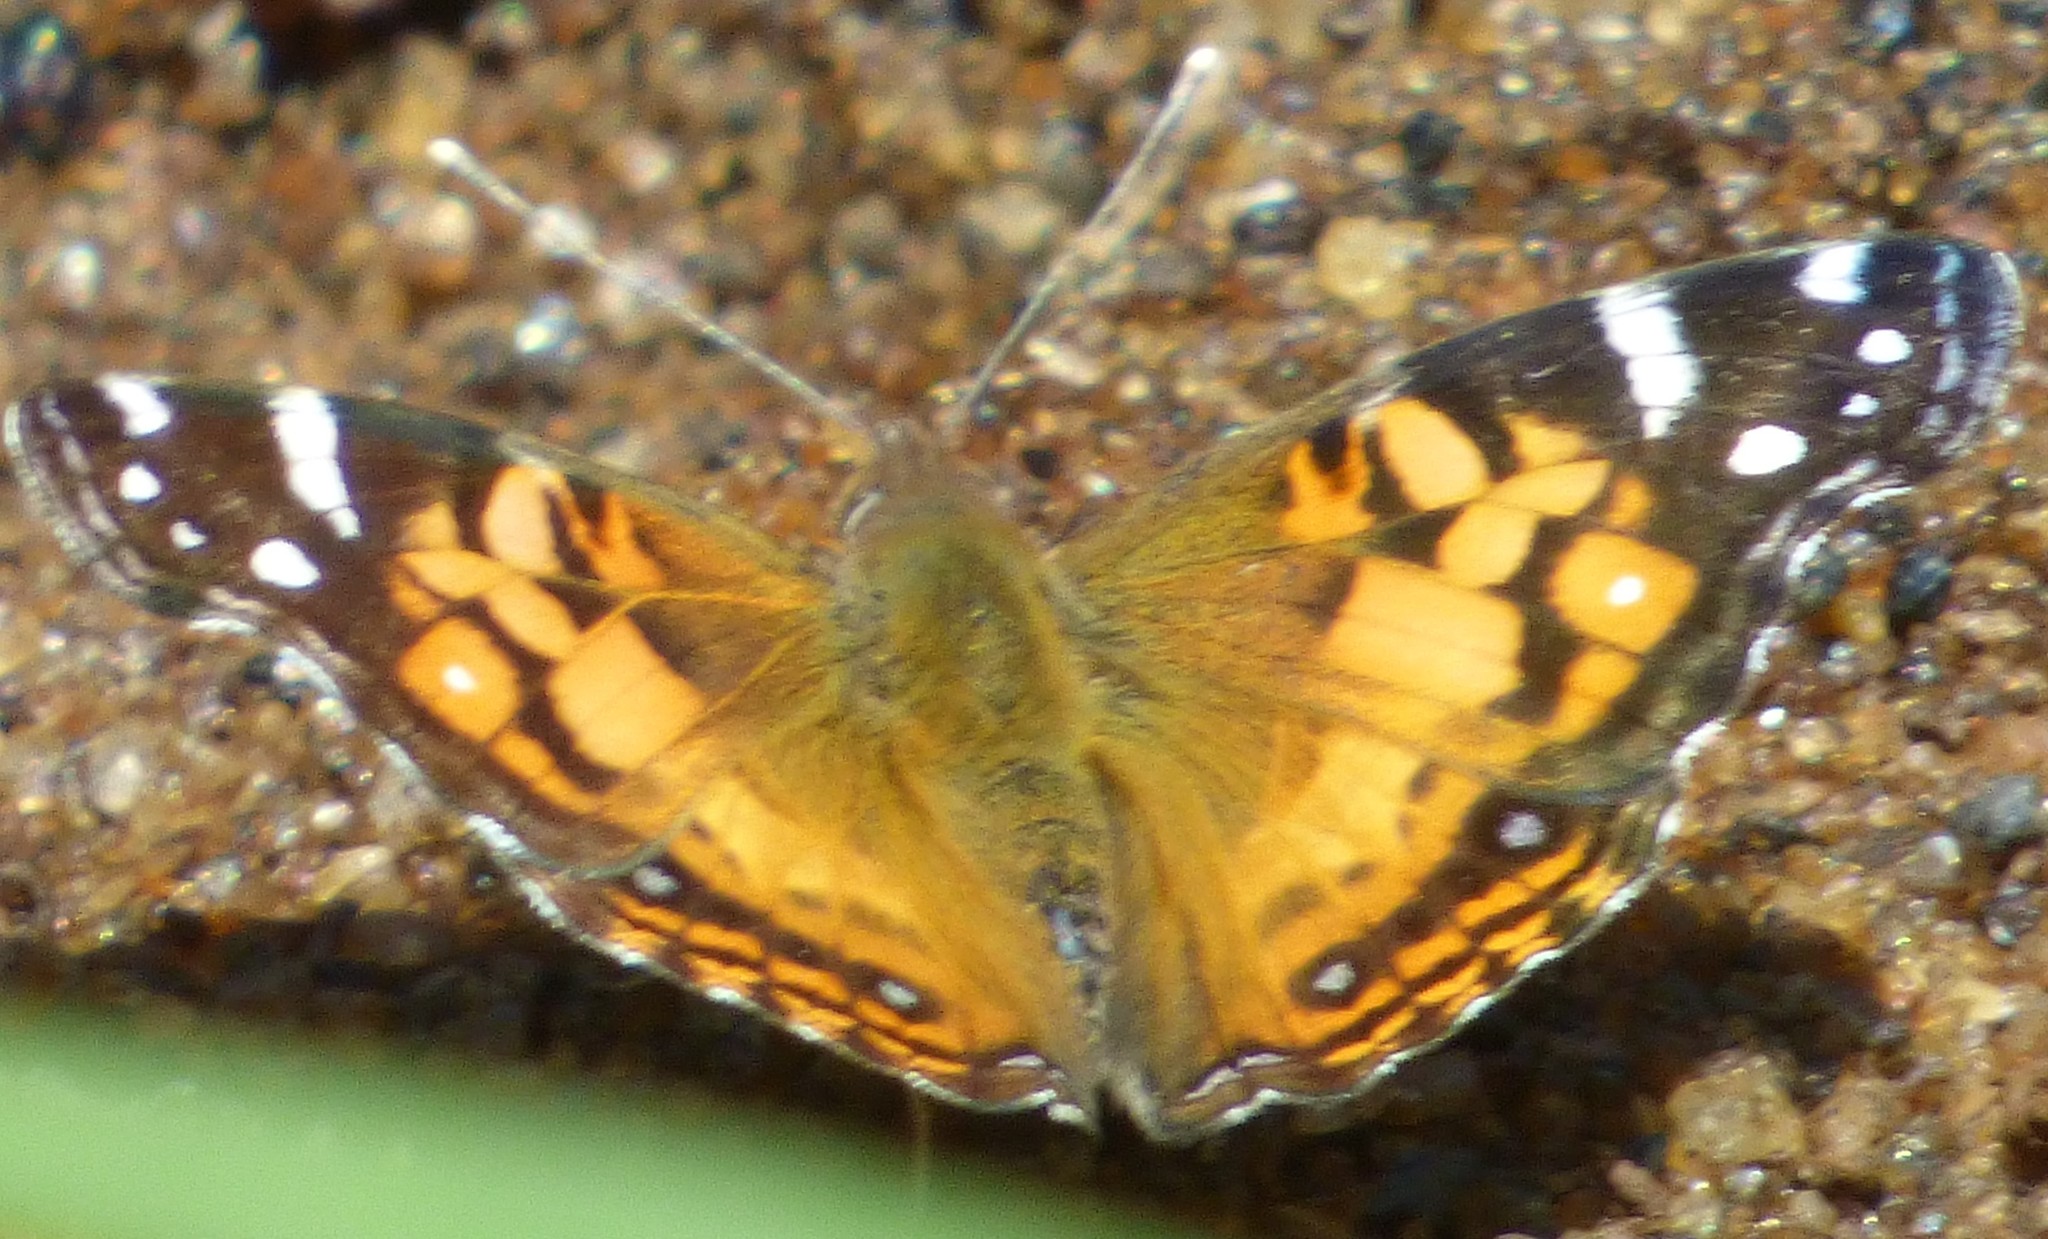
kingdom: Animalia
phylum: Arthropoda
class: Insecta
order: Lepidoptera
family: Nymphalidae
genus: Vanessa
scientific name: Vanessa virginiensis
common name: American lady
